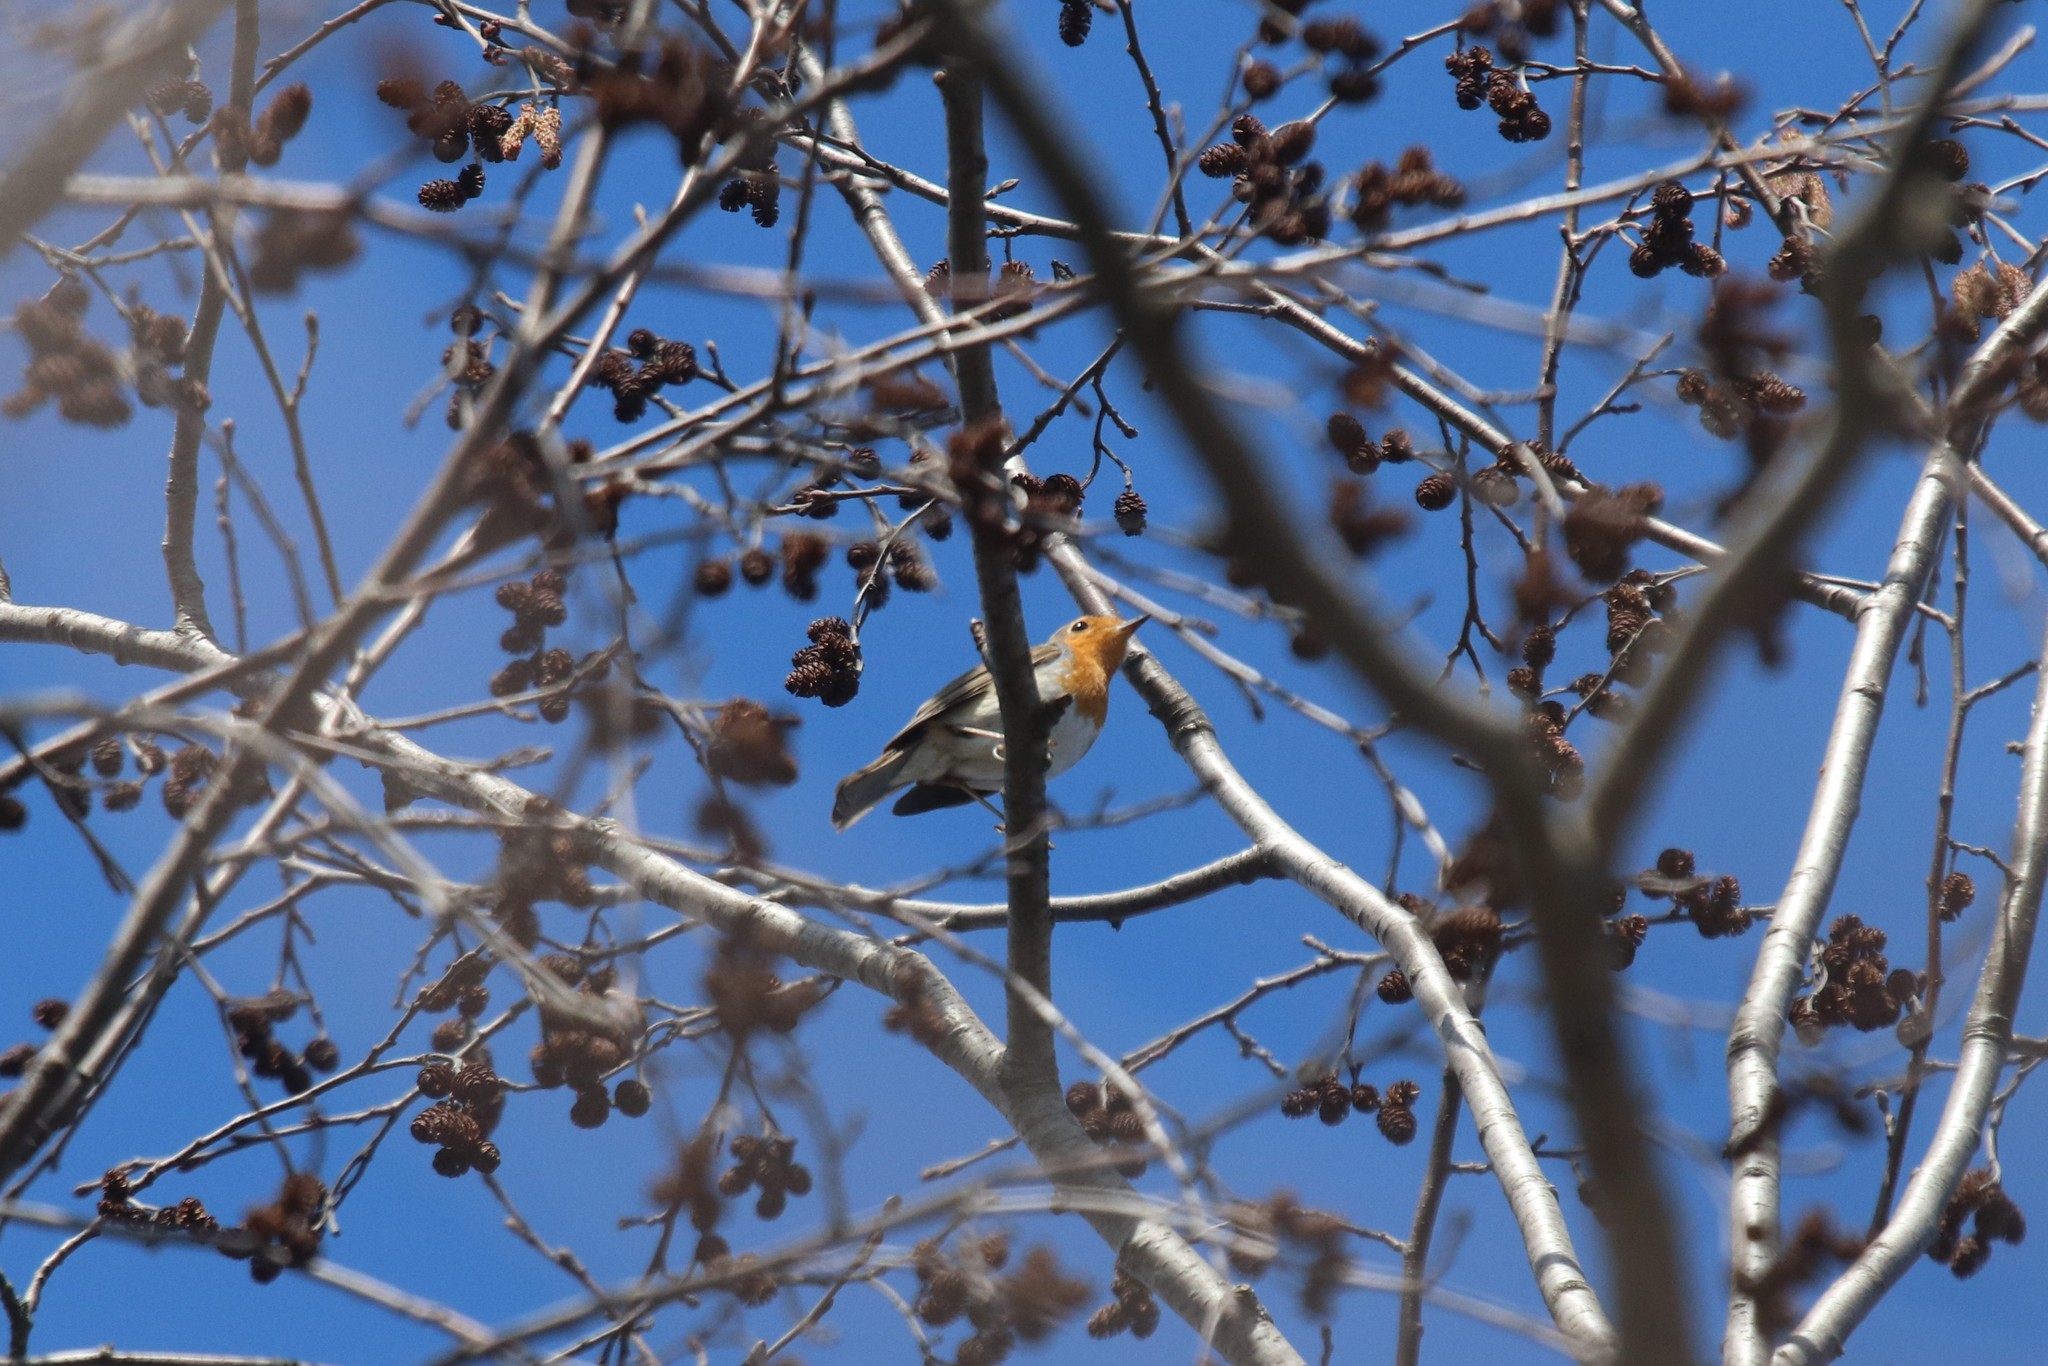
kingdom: Animalia
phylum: Chordata
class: Aves
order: Passeriformes
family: Muscicapidae
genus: Erithacus
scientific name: Erithacus rubecula
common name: European robin
